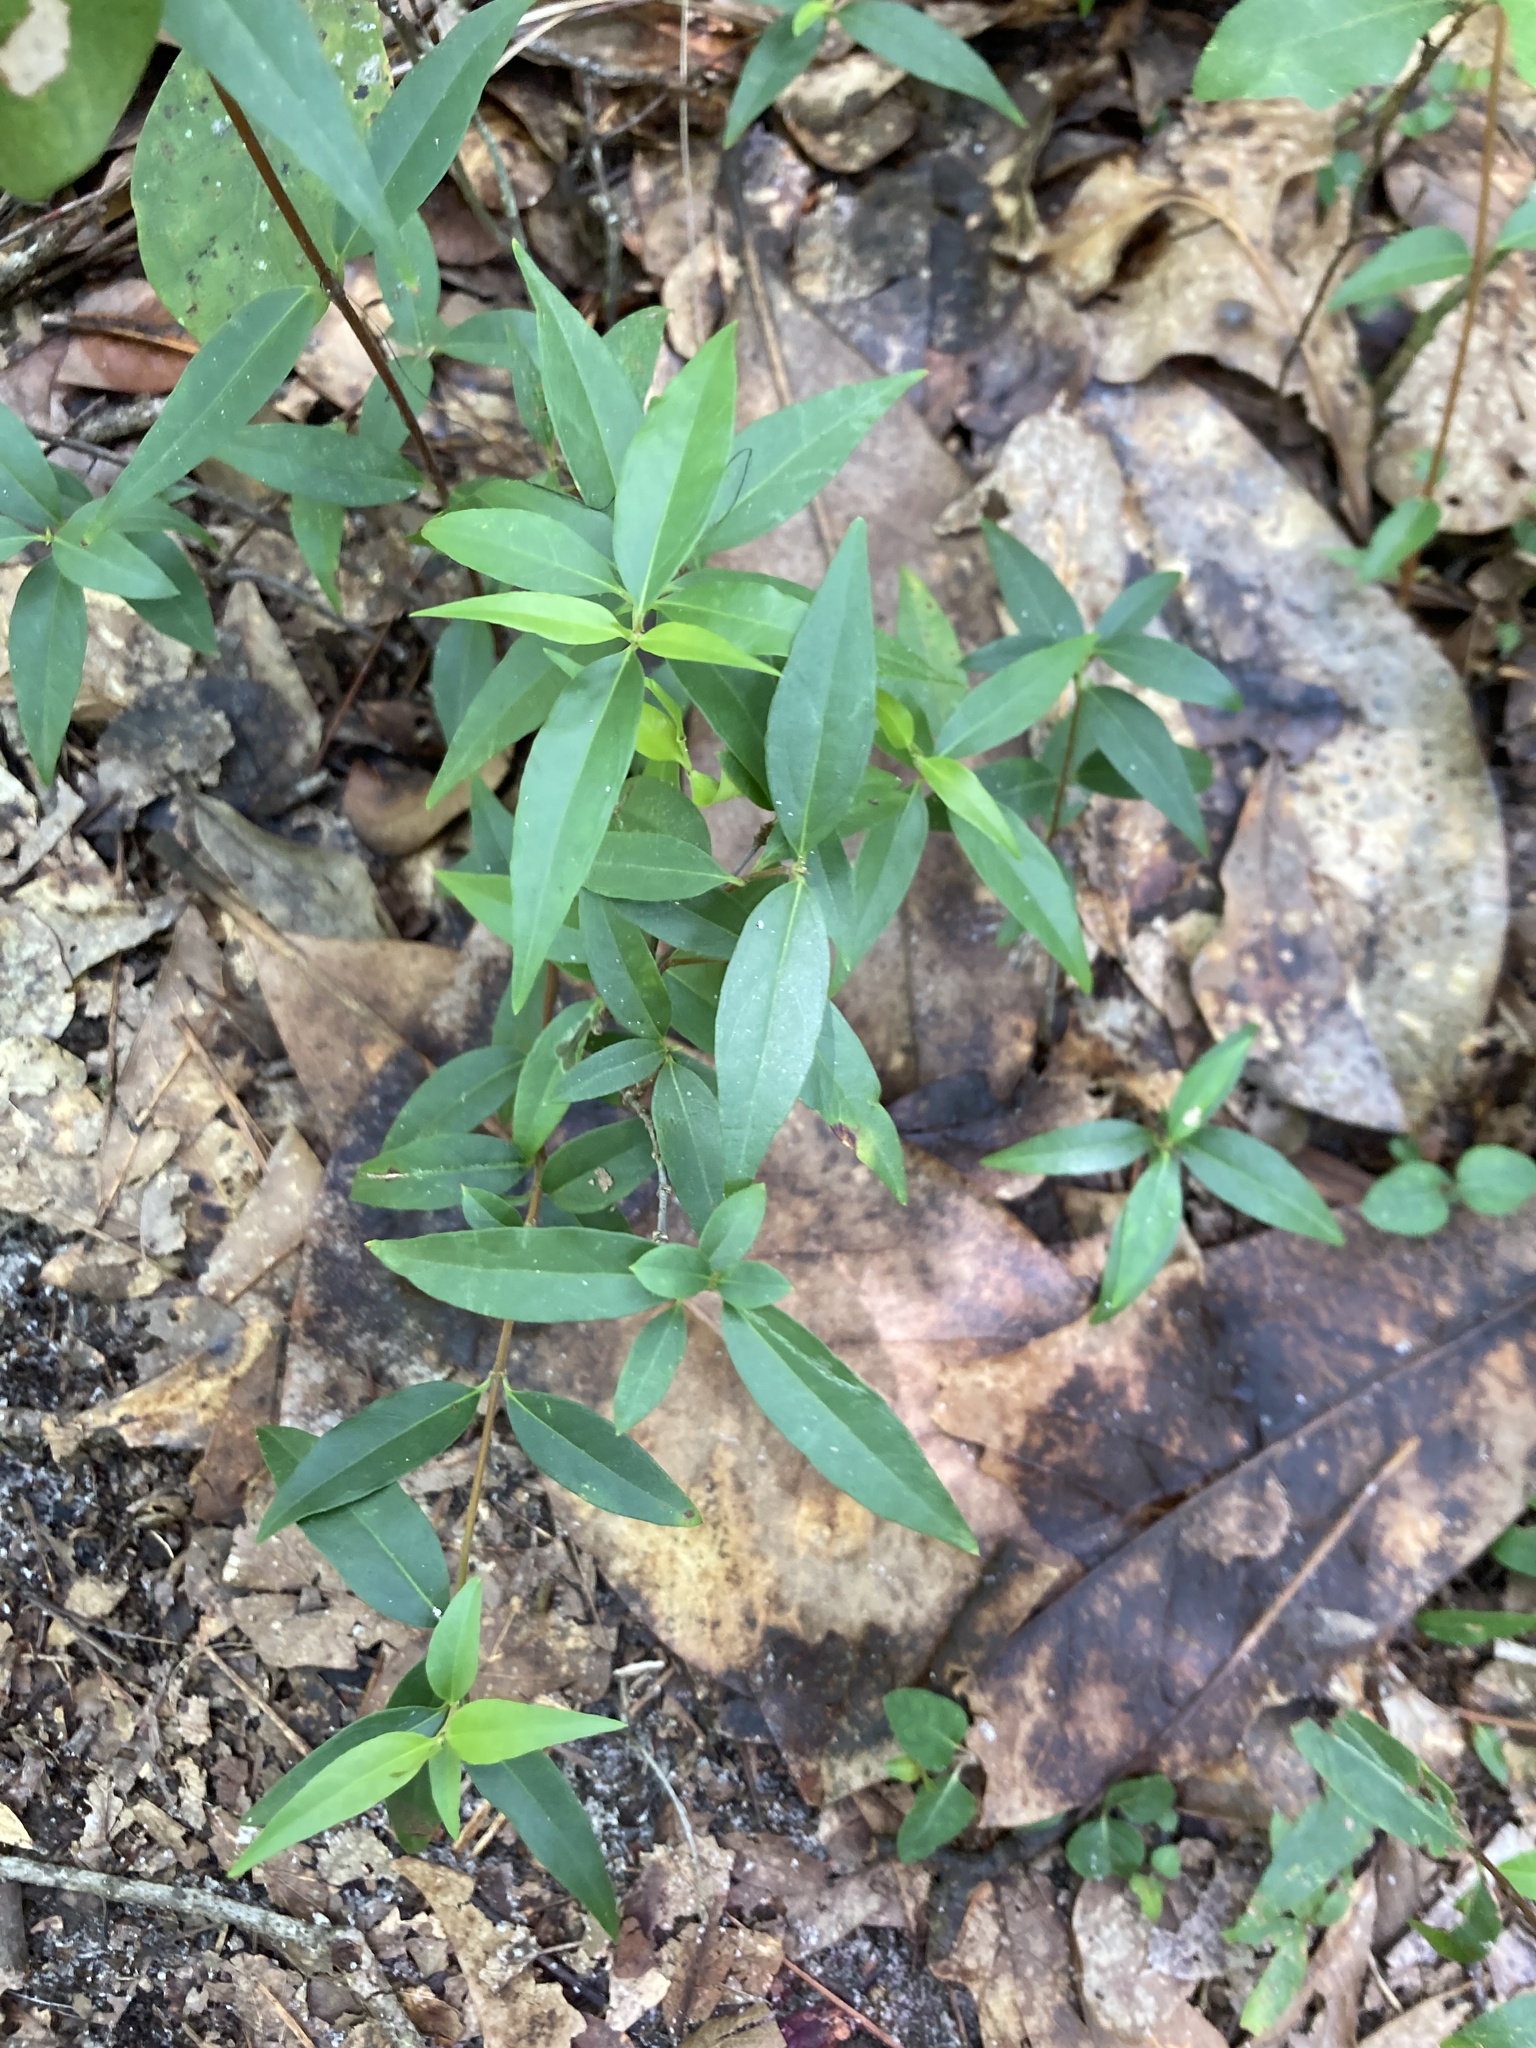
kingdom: Plantae
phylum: Tracheophyta
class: Magnoliopsida
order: Gentianales
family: Gelsemiaceae
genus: Gelsemium
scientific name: Gelsemium sempervirens
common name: Carolina-jasmine
